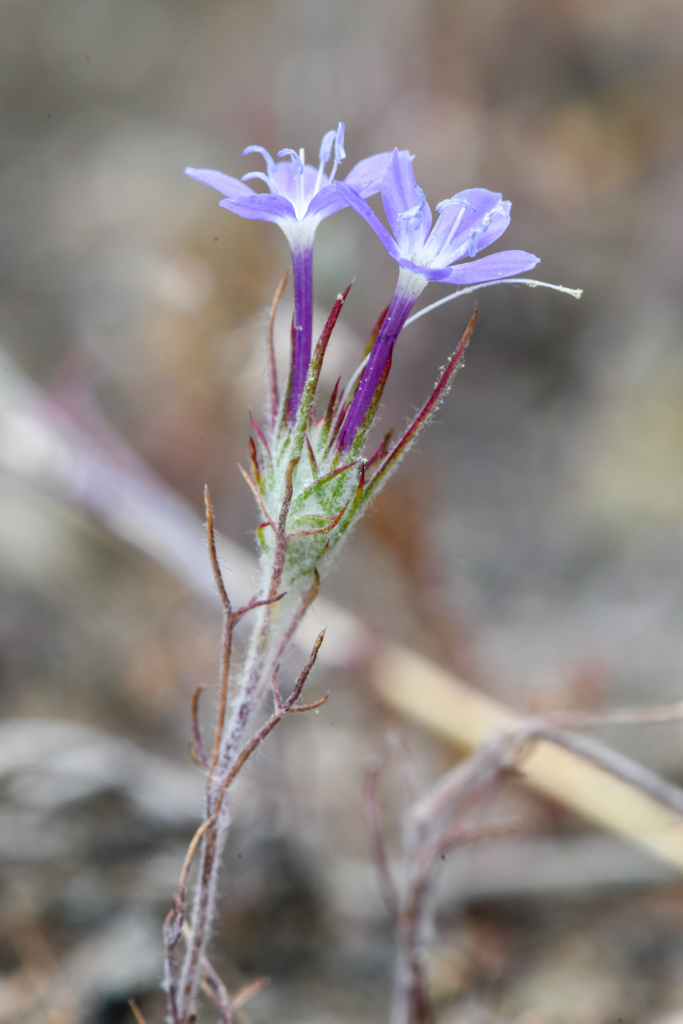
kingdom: Plantae
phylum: Tracheophyta
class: Magnoliopsida
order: Ericales
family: Polemoniaceae
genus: Eriastrum
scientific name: Eriastrum pluriflorum
